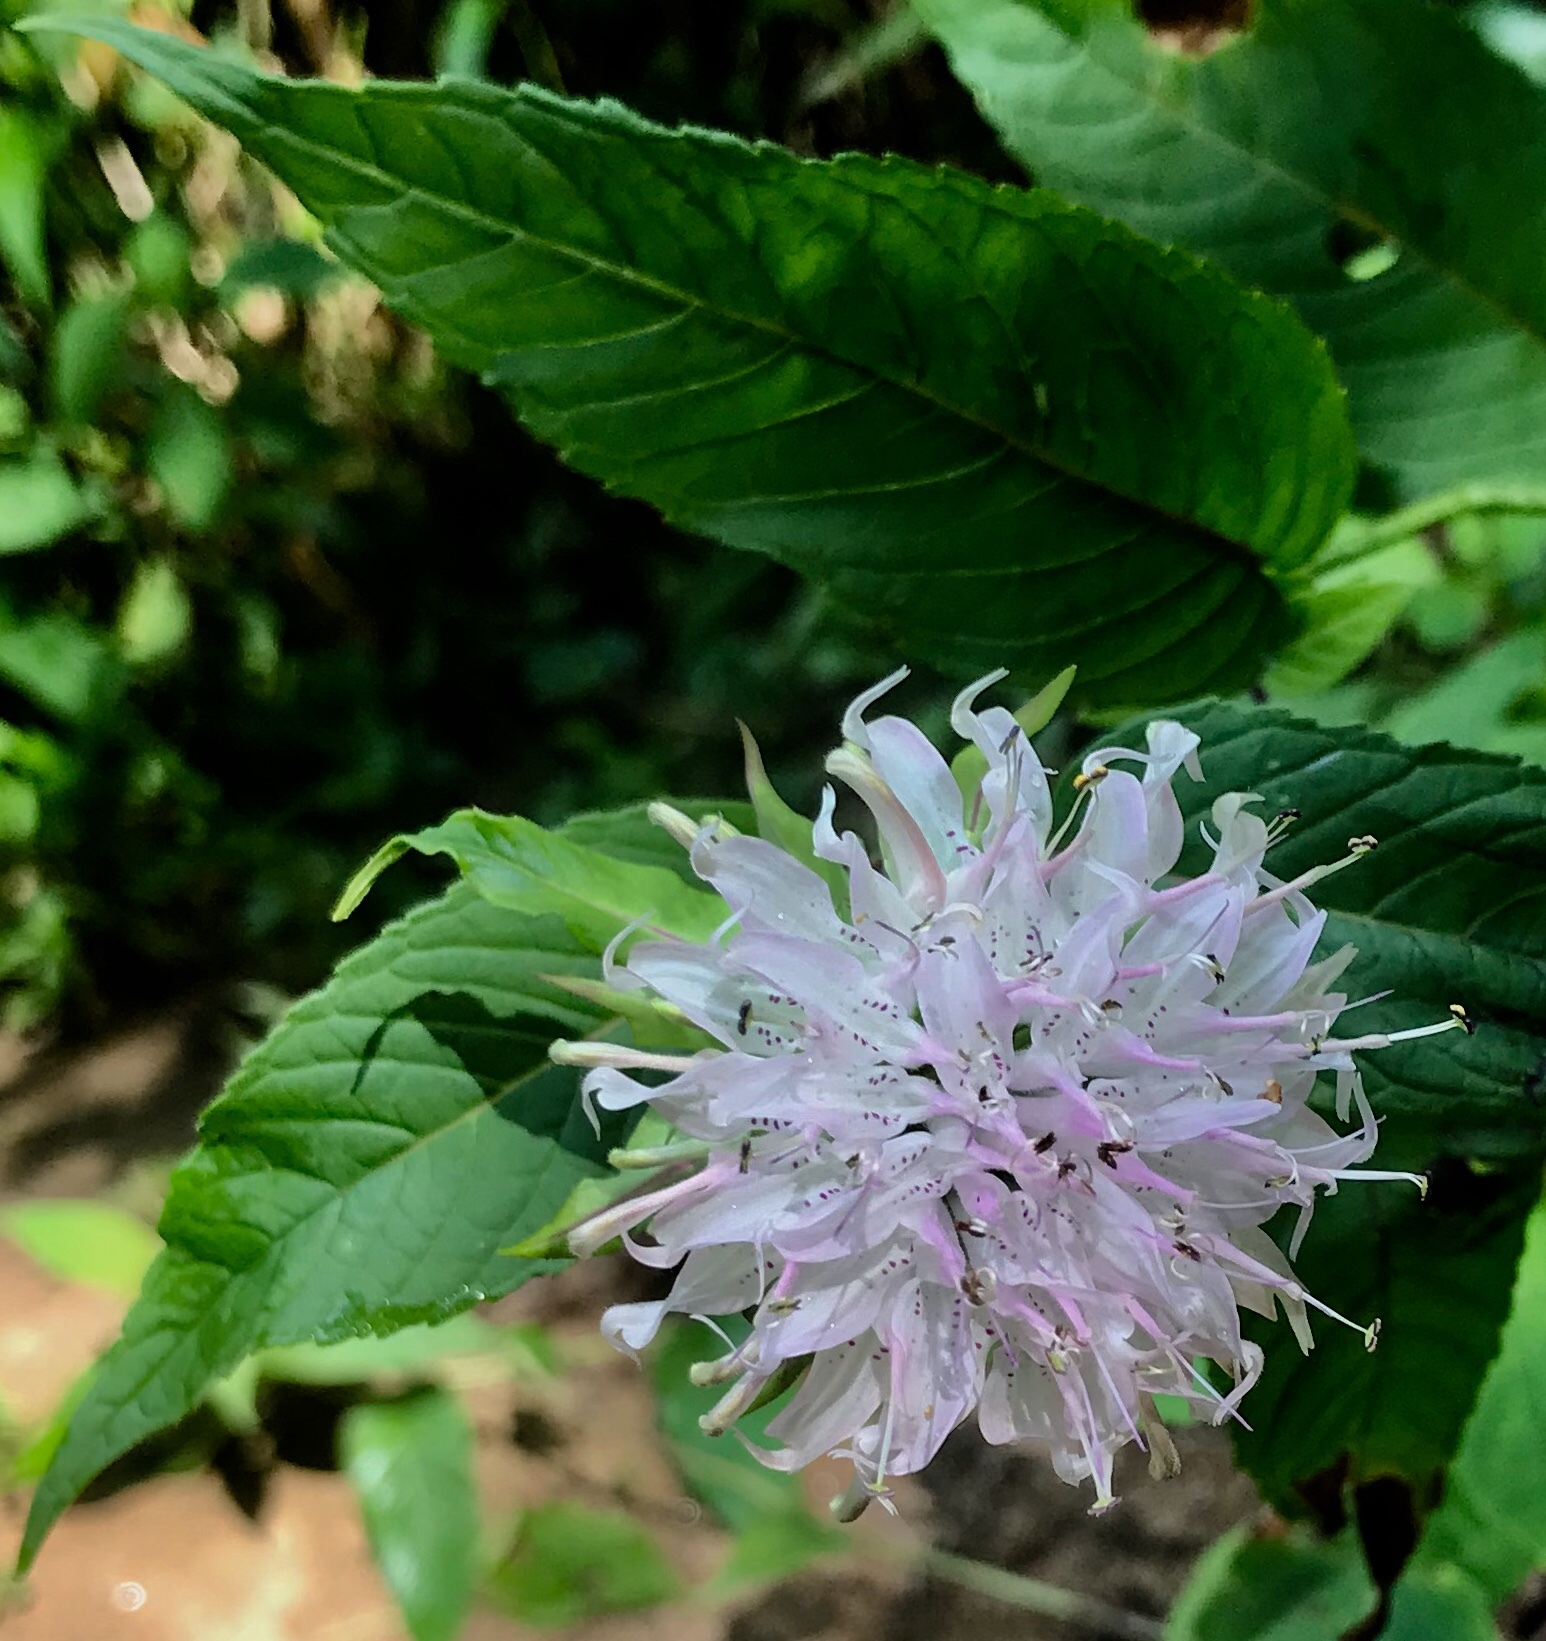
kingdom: Plantae
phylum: Tracheophyta
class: Magnoliopsida
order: Lamiales
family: Lamiaceae
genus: Monarda
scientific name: Monarda clinopodia
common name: Basil beebalm
